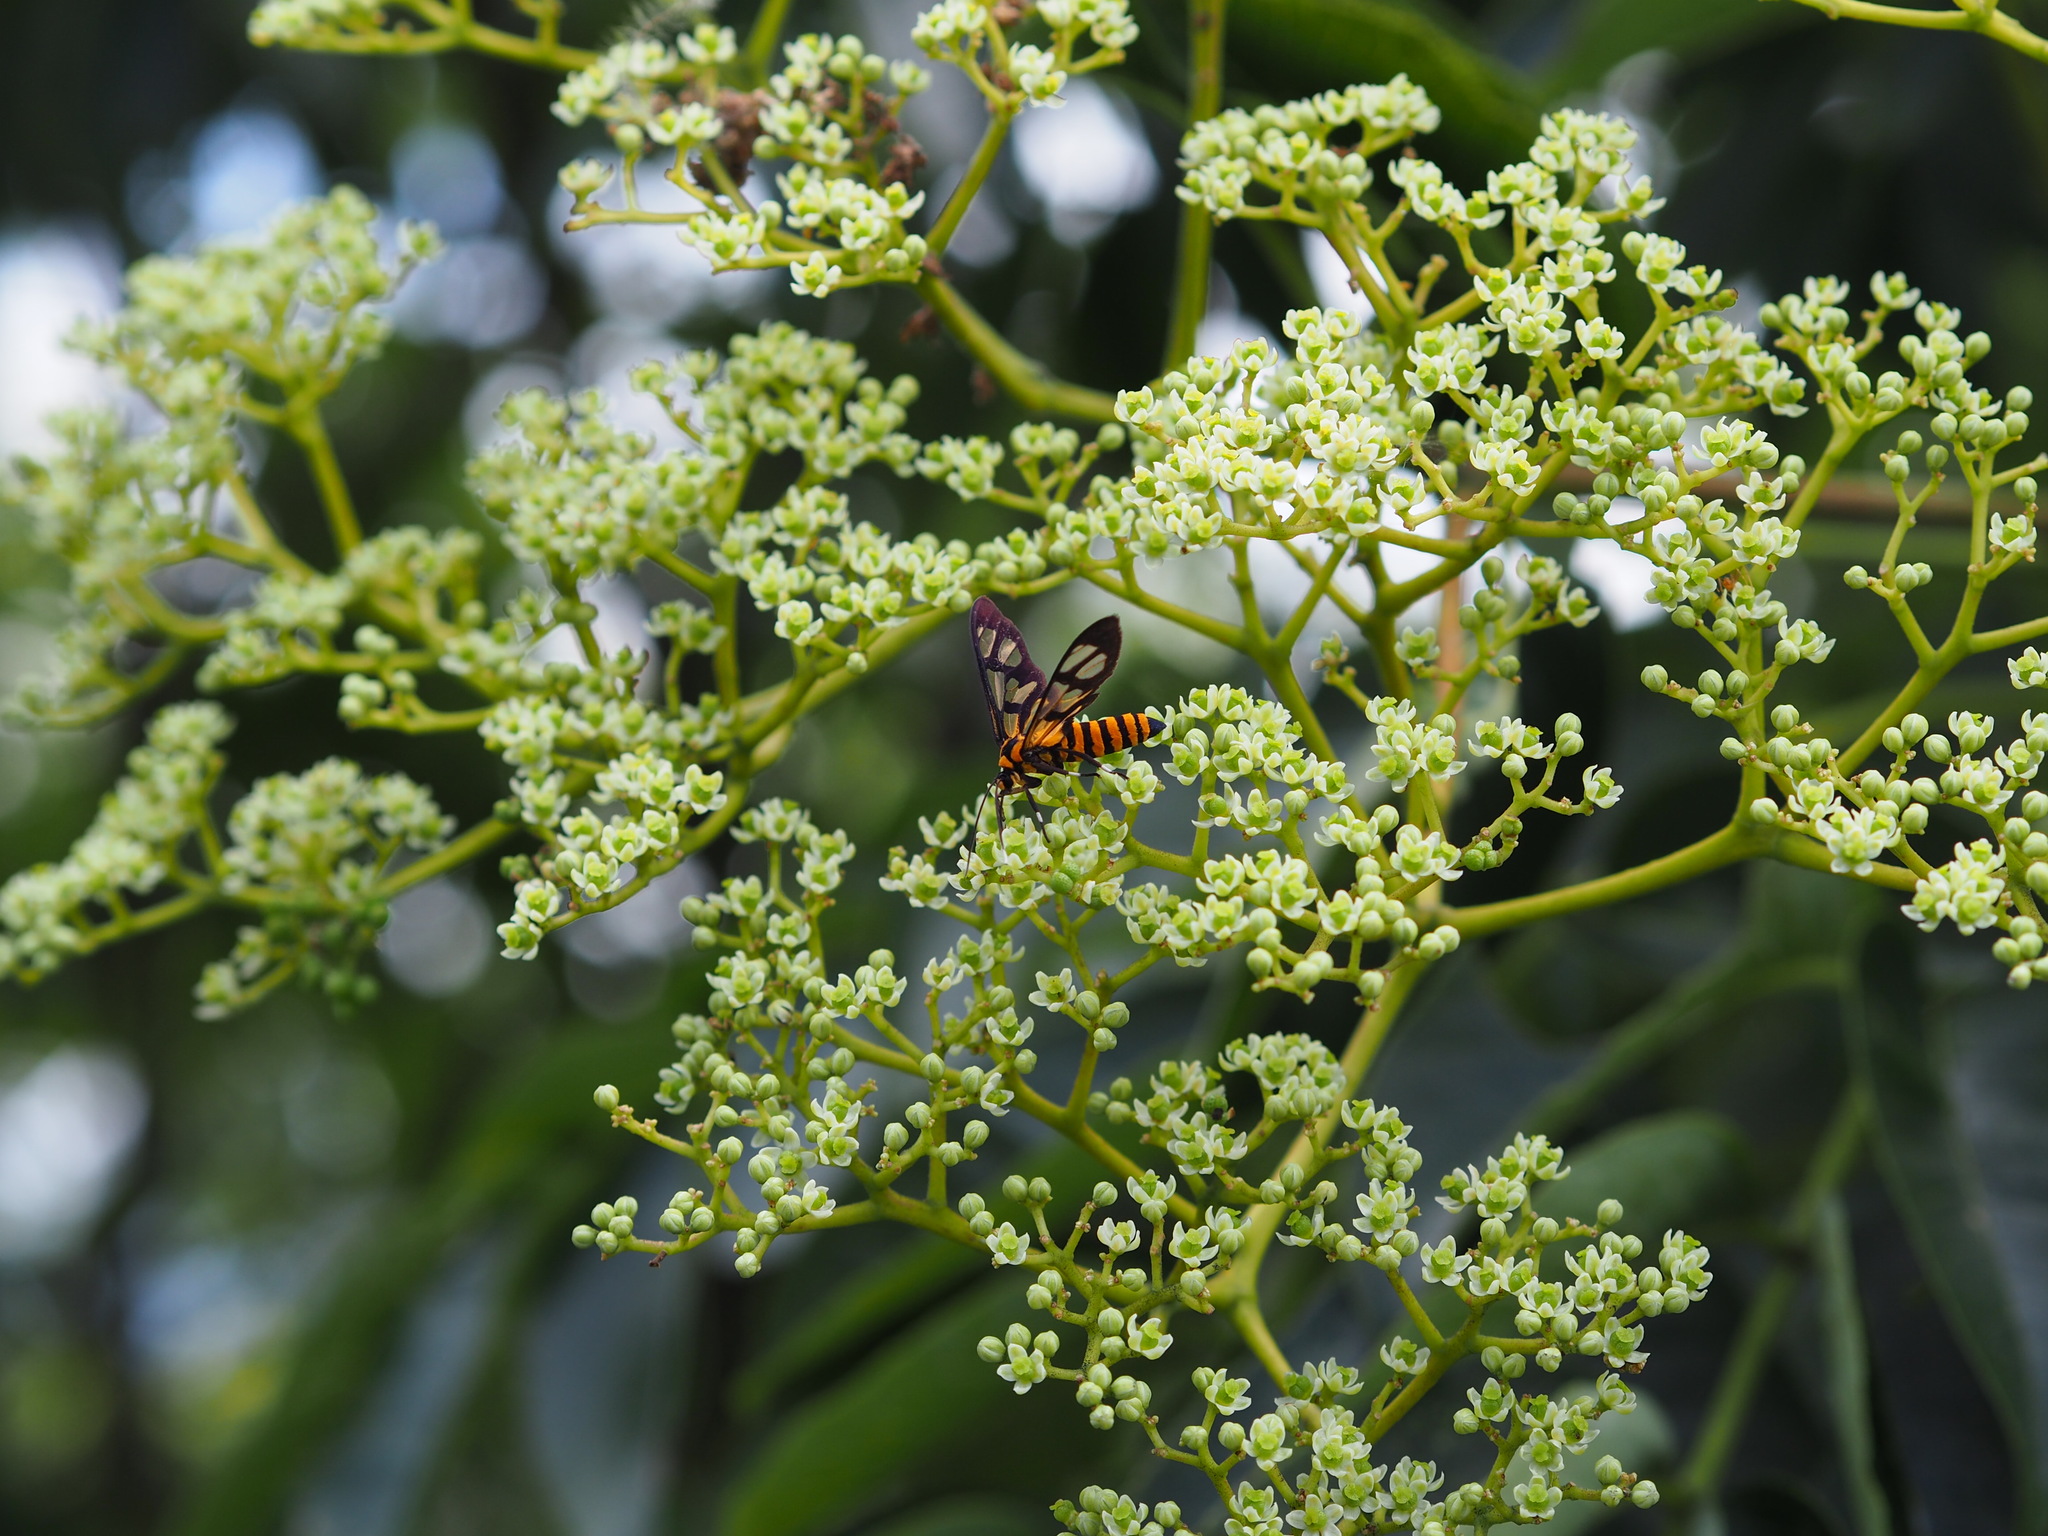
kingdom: Animalia
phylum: Arthropoda
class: Insecta
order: Lepidoptera
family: Erebidae
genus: Amata
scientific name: Amata persimilis
